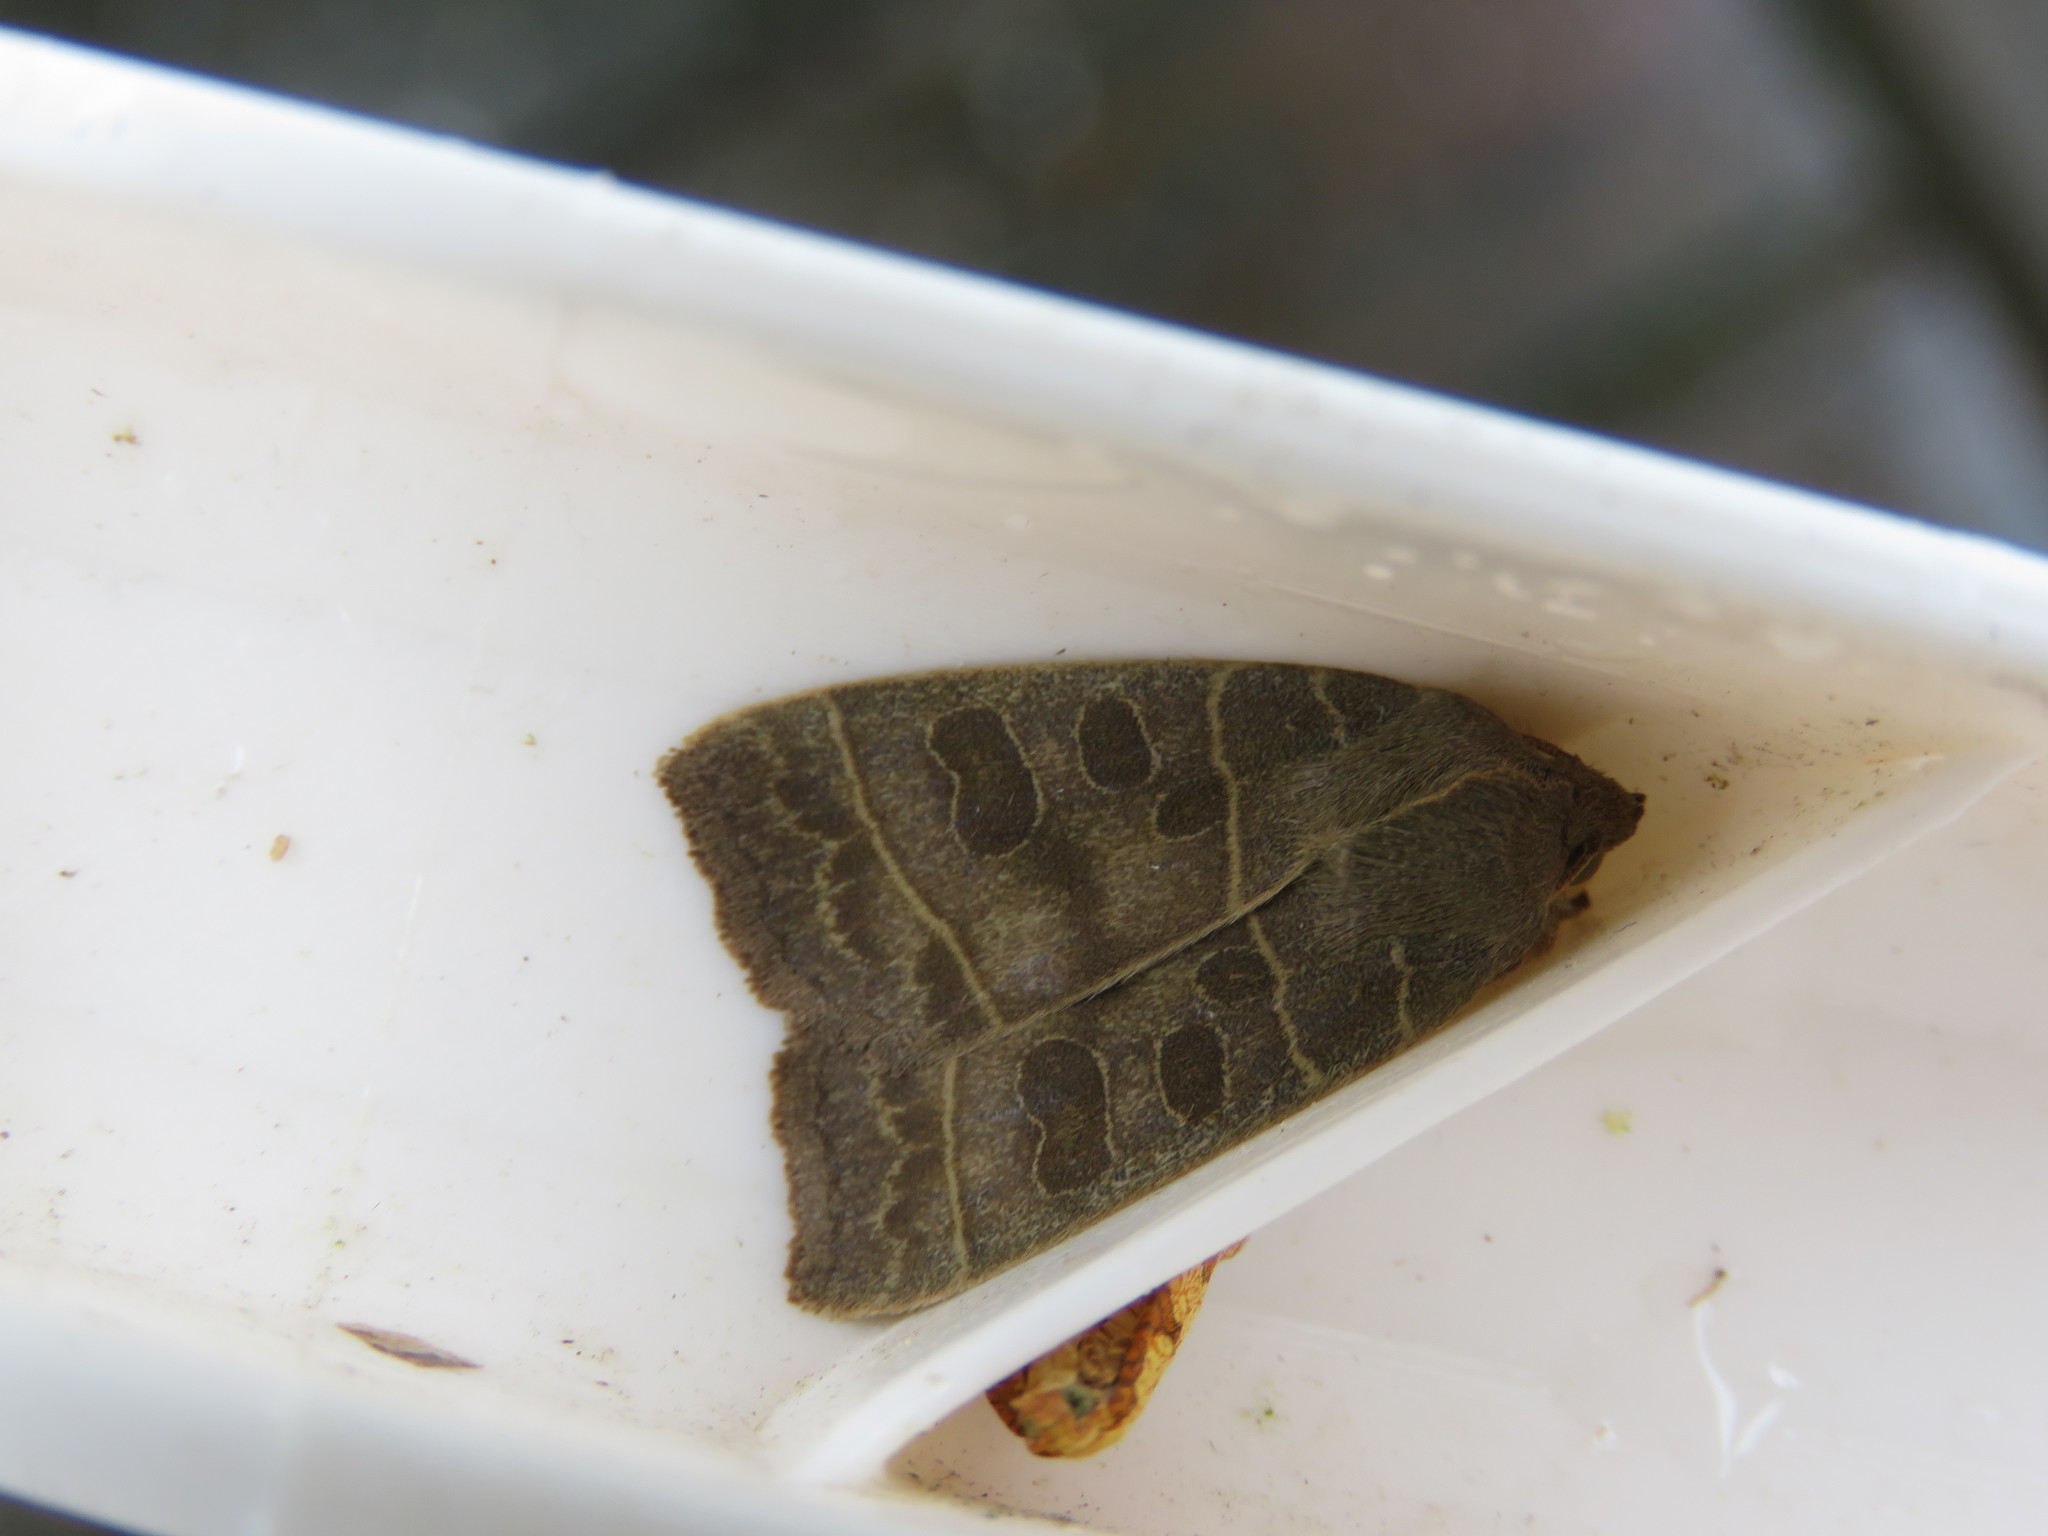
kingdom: Animalia
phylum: Arthropoda
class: Insecta
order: Lepidoptera
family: Noctuidae
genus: Ipimorpha
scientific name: Ipimorpha pleonectusa
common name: Even-lined sallow
